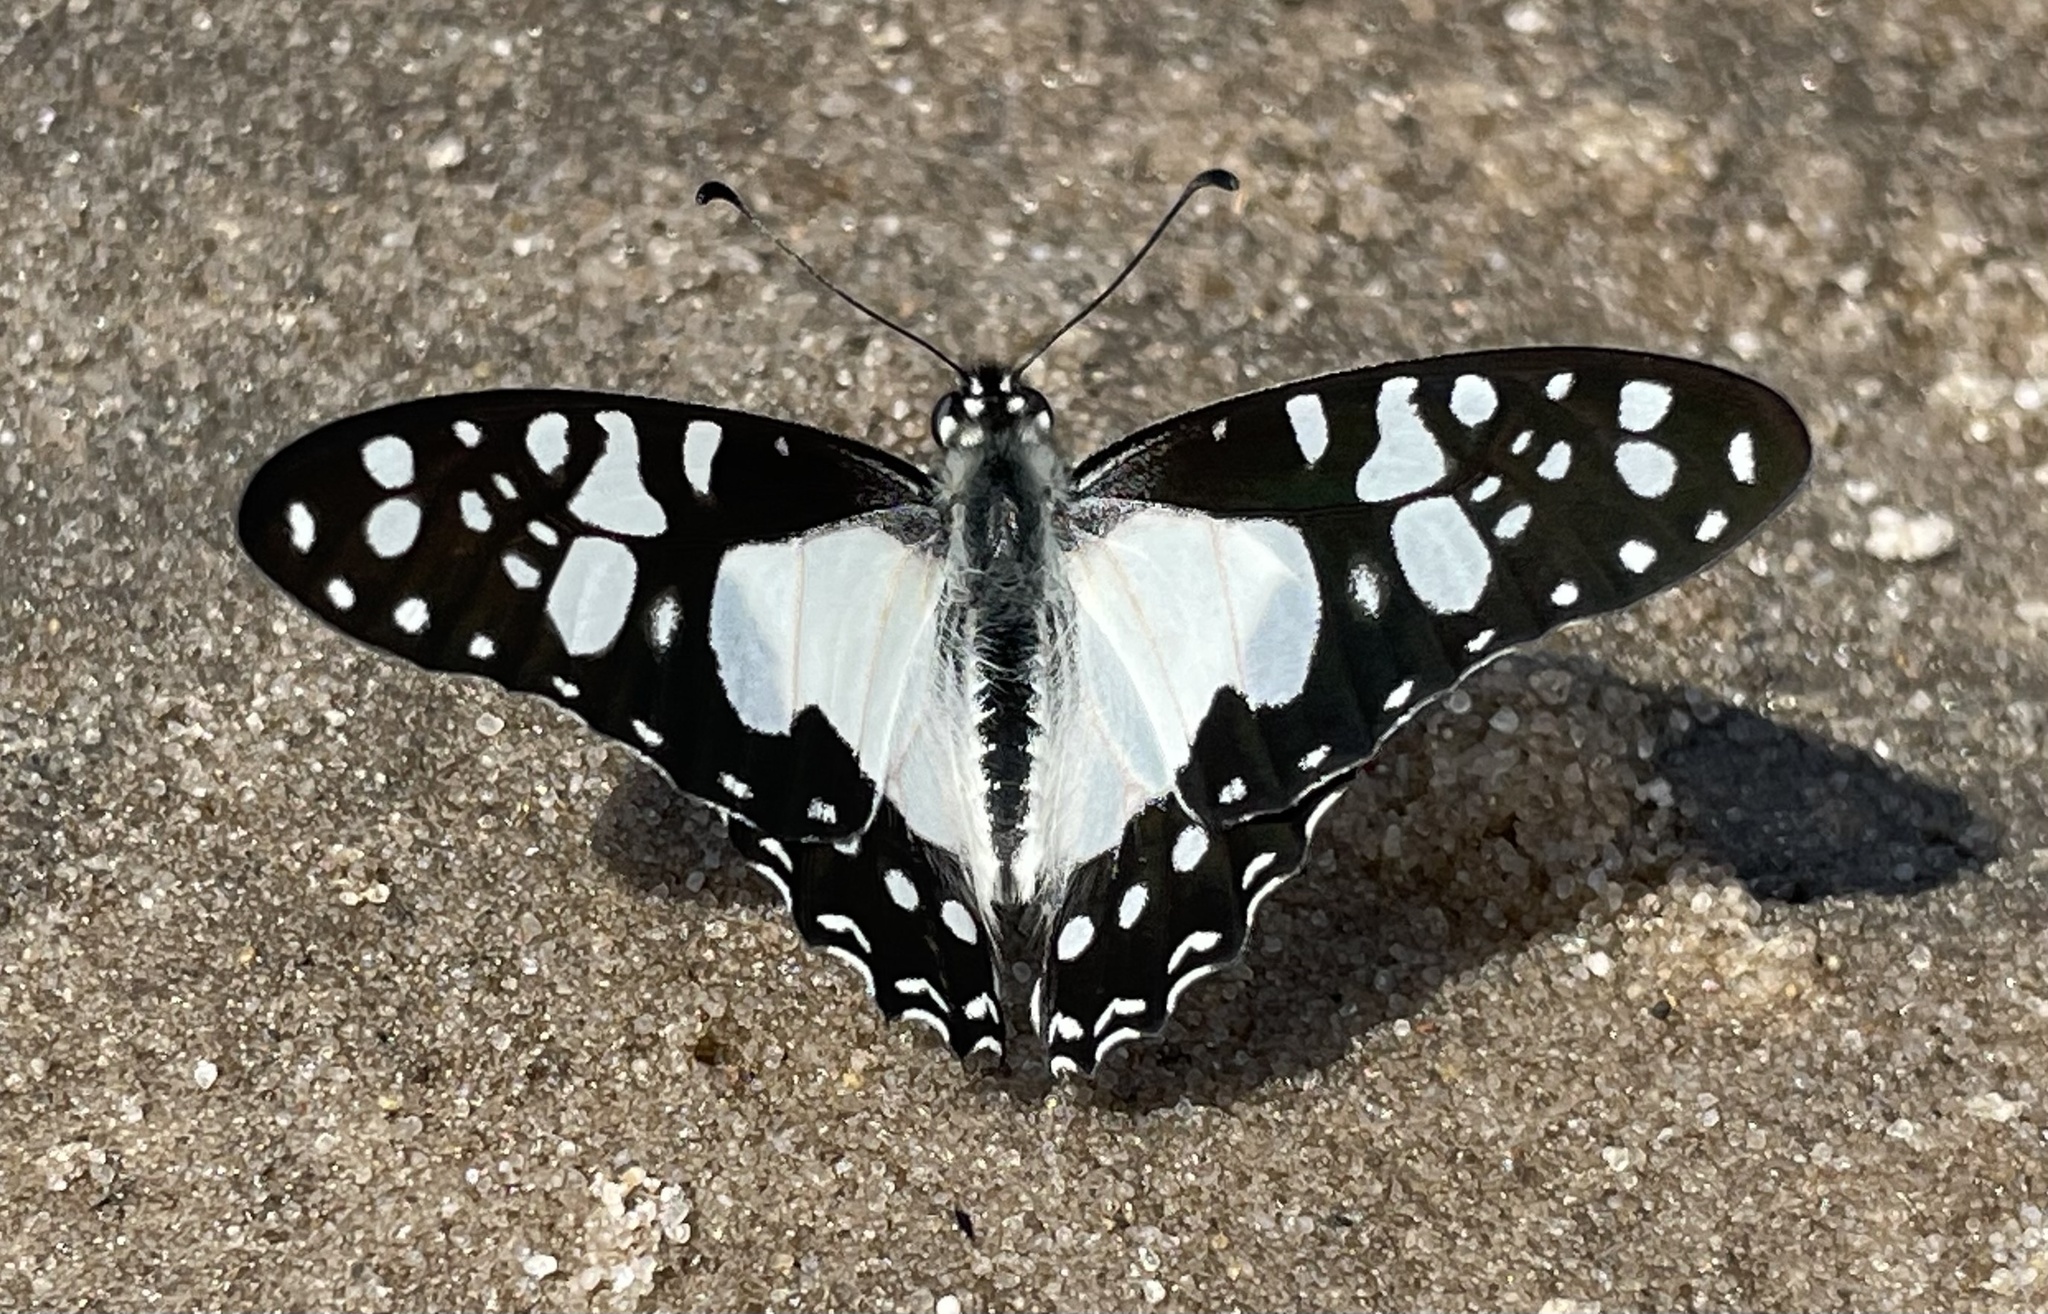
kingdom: Animalia
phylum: Arthropoda
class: Insecta
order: Lepidoptera
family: Papilionidae
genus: Graphium
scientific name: Graphium schaffgotschi
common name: Schaffgotsch's swordtail
